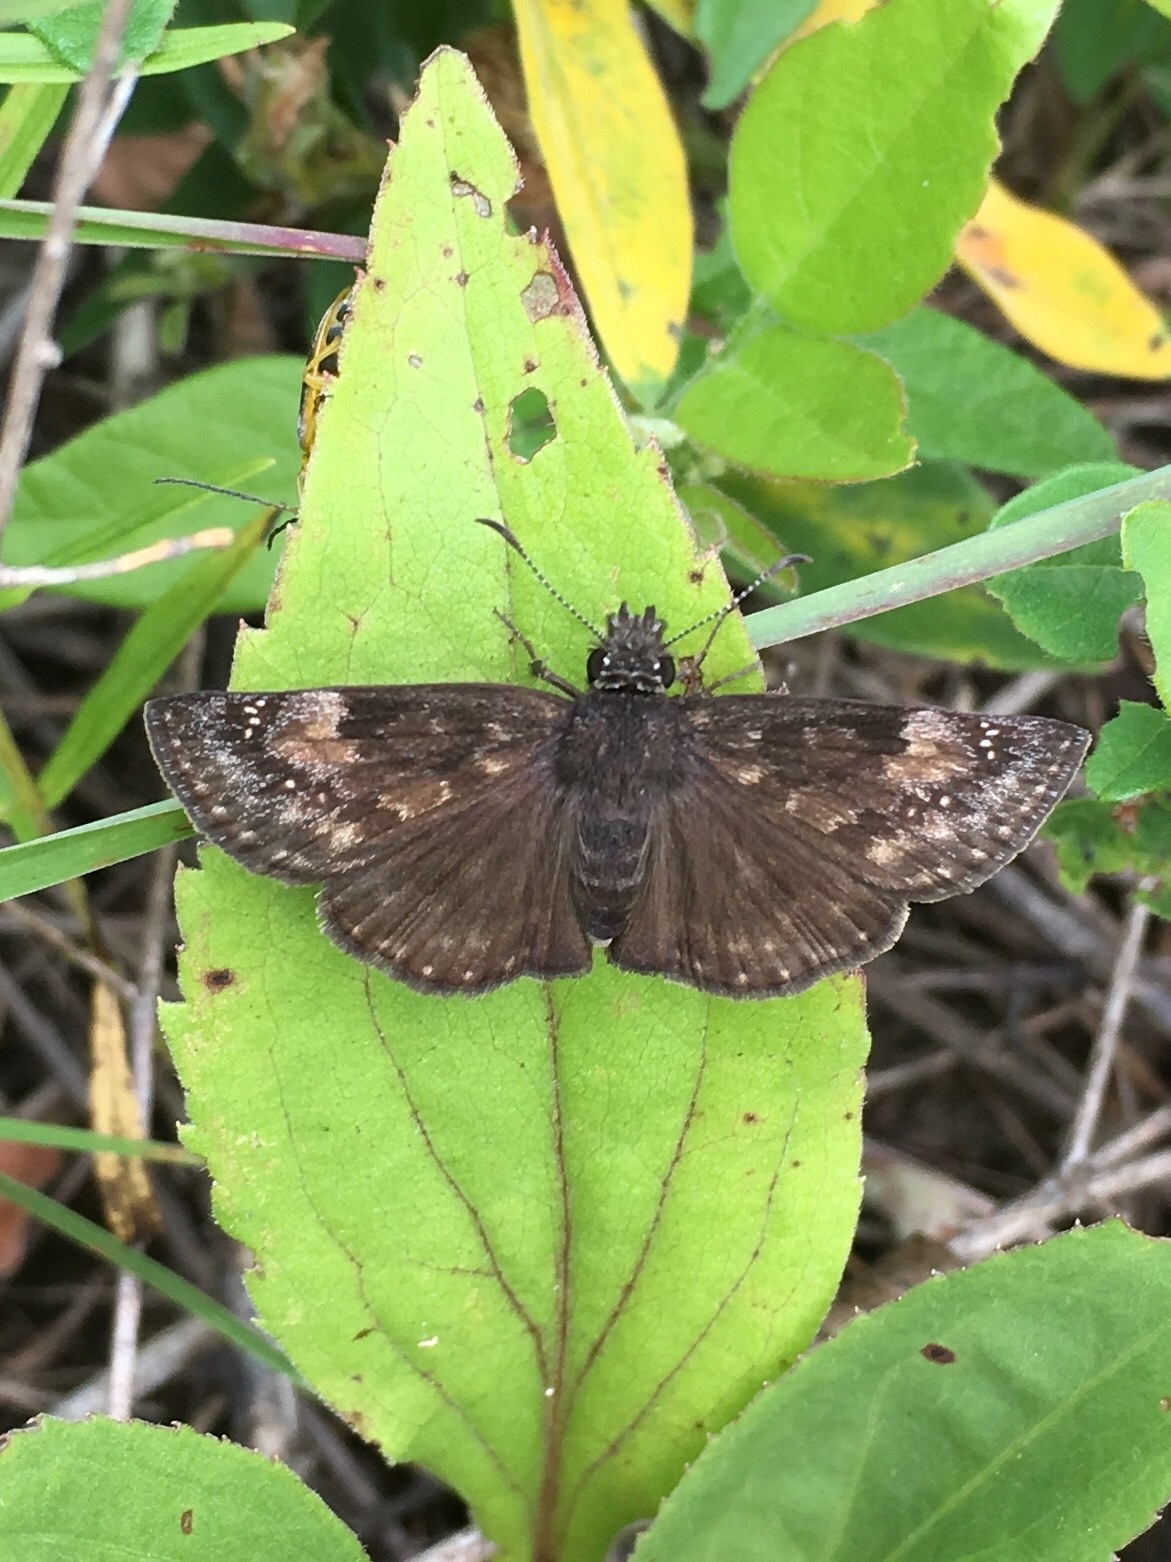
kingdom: Animalia
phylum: Arthropoda
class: Insecta
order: Lepidoptera
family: Hesperiidae
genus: Erynnis
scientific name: Erynnis baptisiae
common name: Wild indigo duskywing
